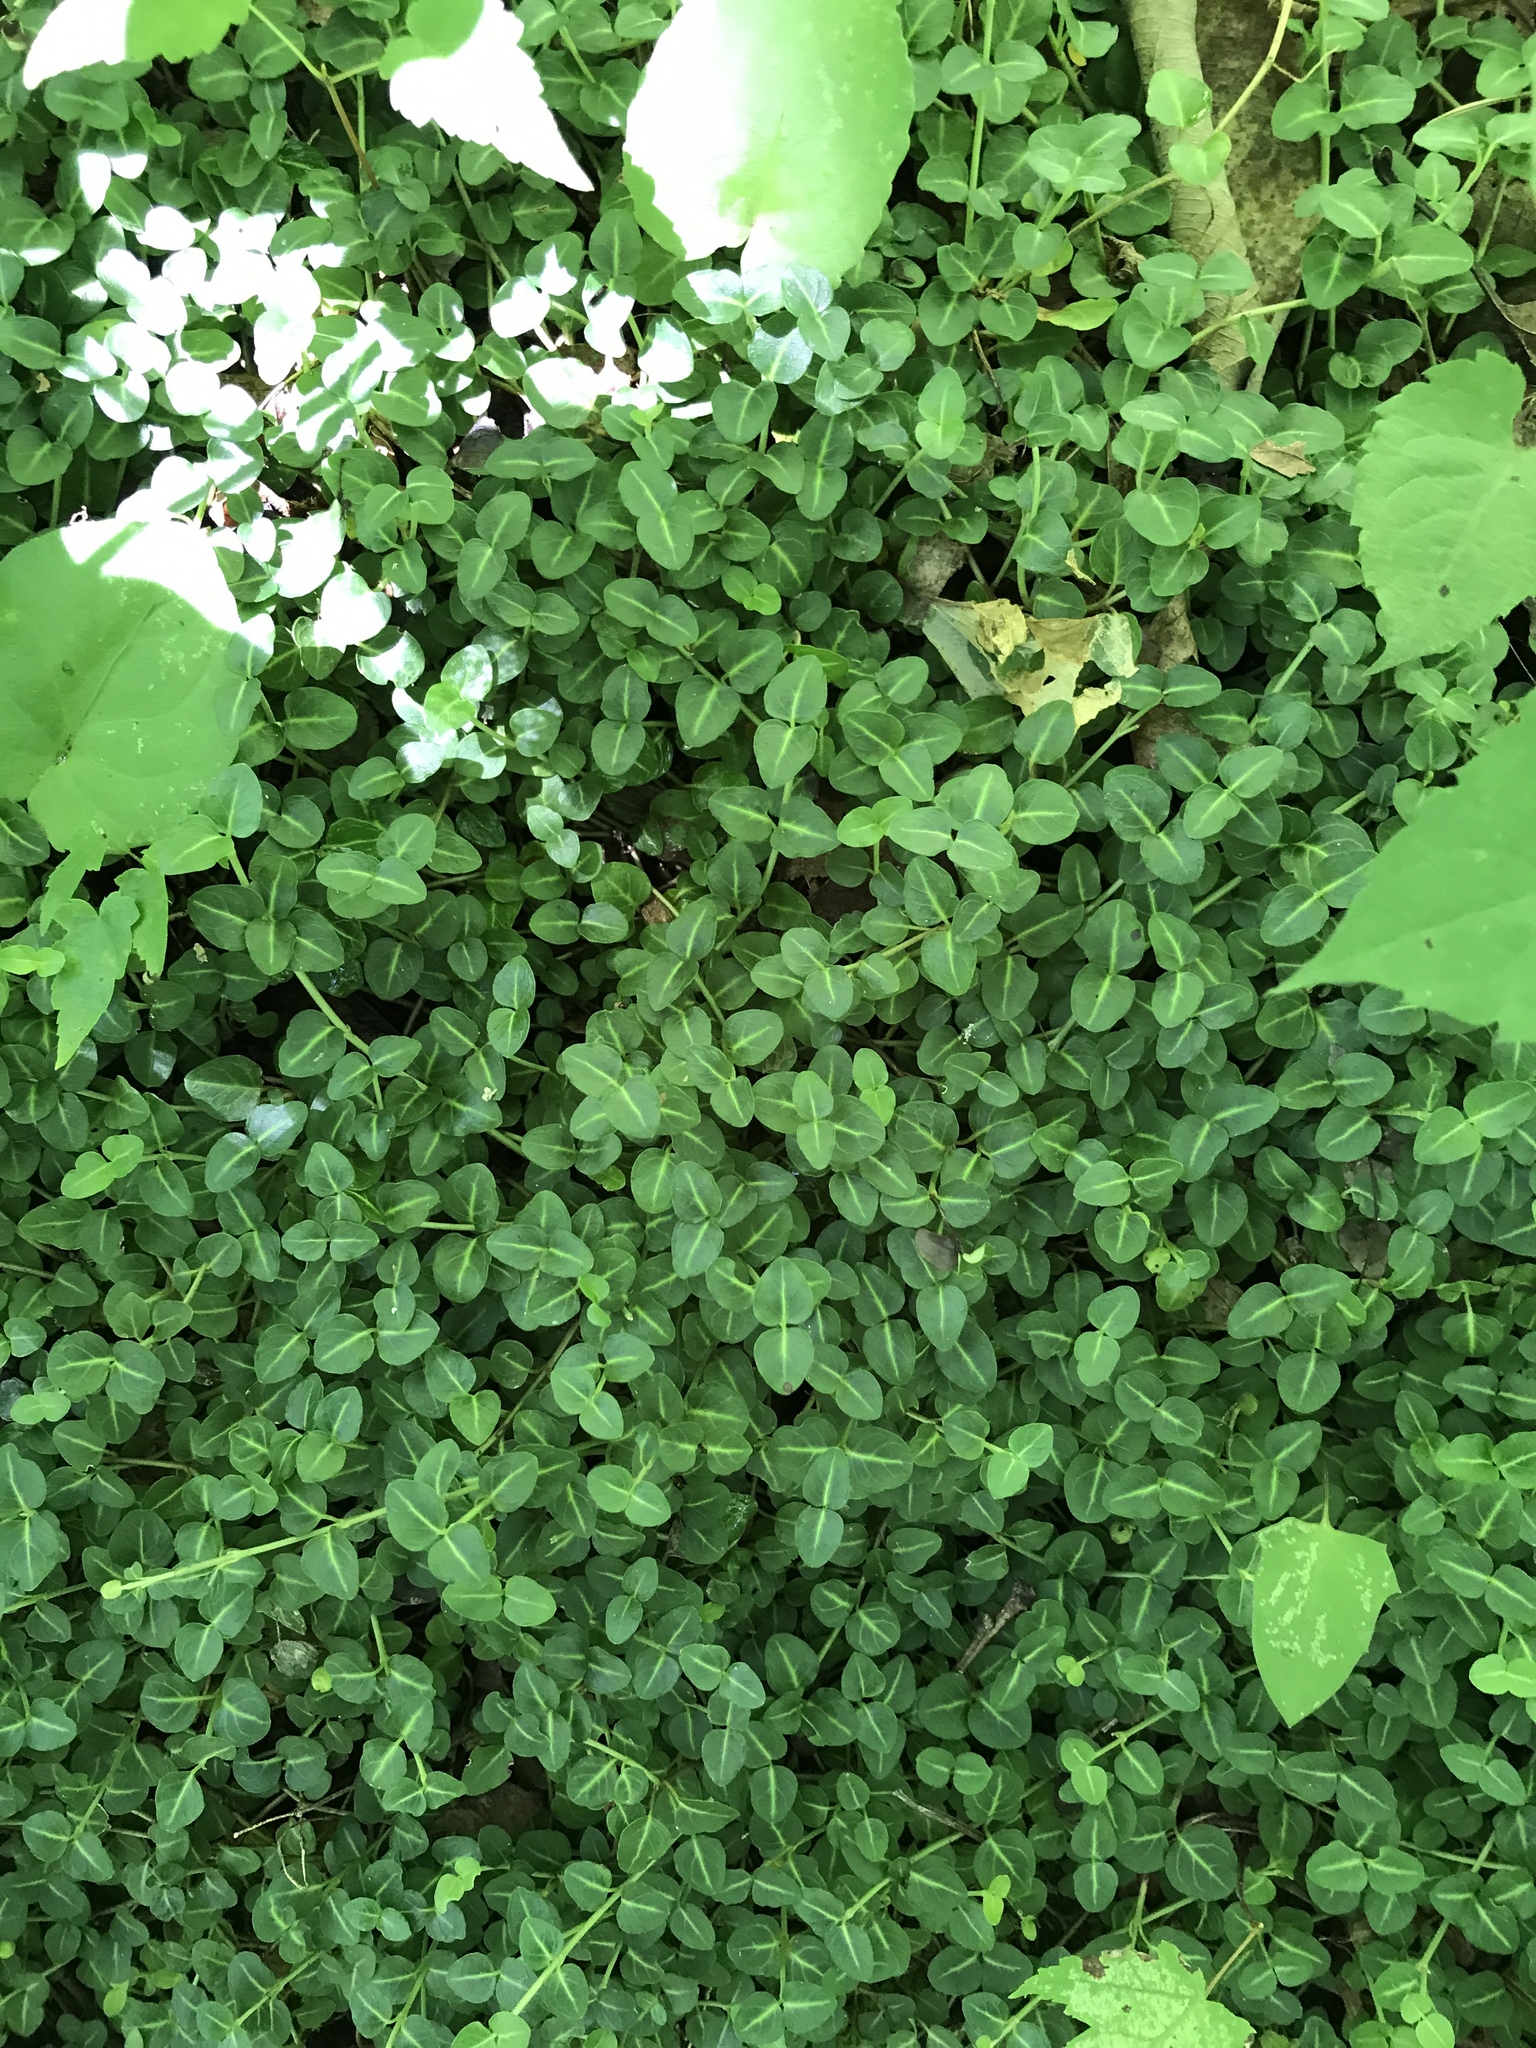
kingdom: Plantae
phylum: Tracheophyta
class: Magnoliopsida
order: Gentianales
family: Rubiaceae
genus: Mitchella
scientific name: Mitchella repens
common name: Partridge-berry
